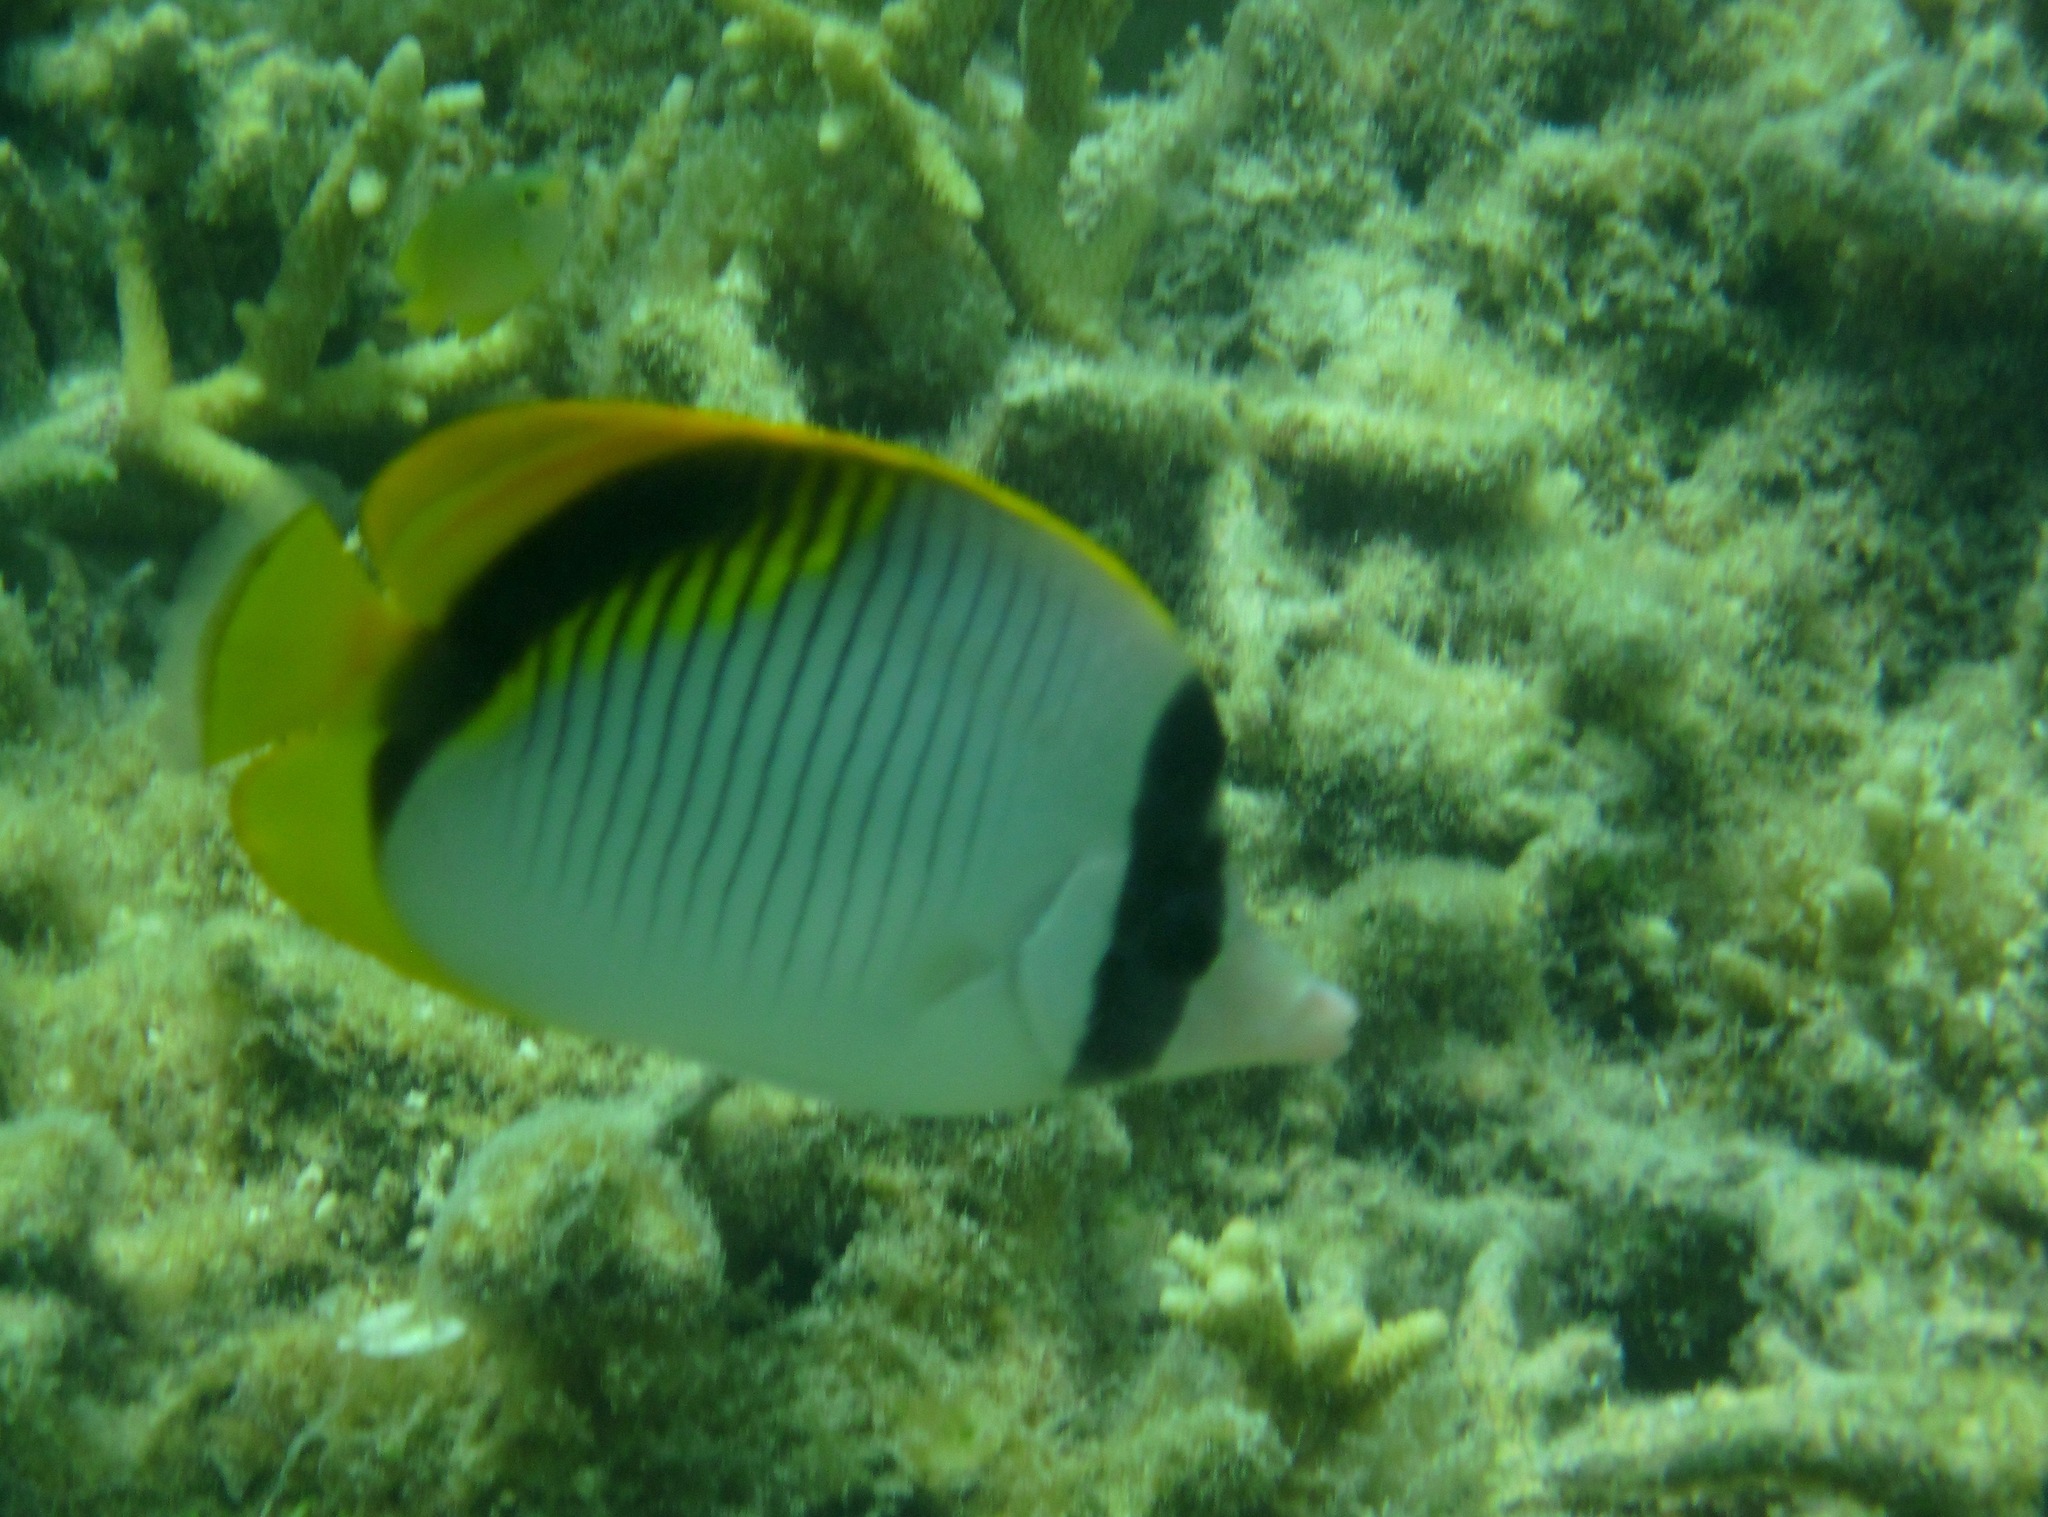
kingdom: Animalia
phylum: Chordata
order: Perciformes
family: Chaetodontidae
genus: Chaetodon
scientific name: Chaetodon lineolatus
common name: Lined butterflyfish
